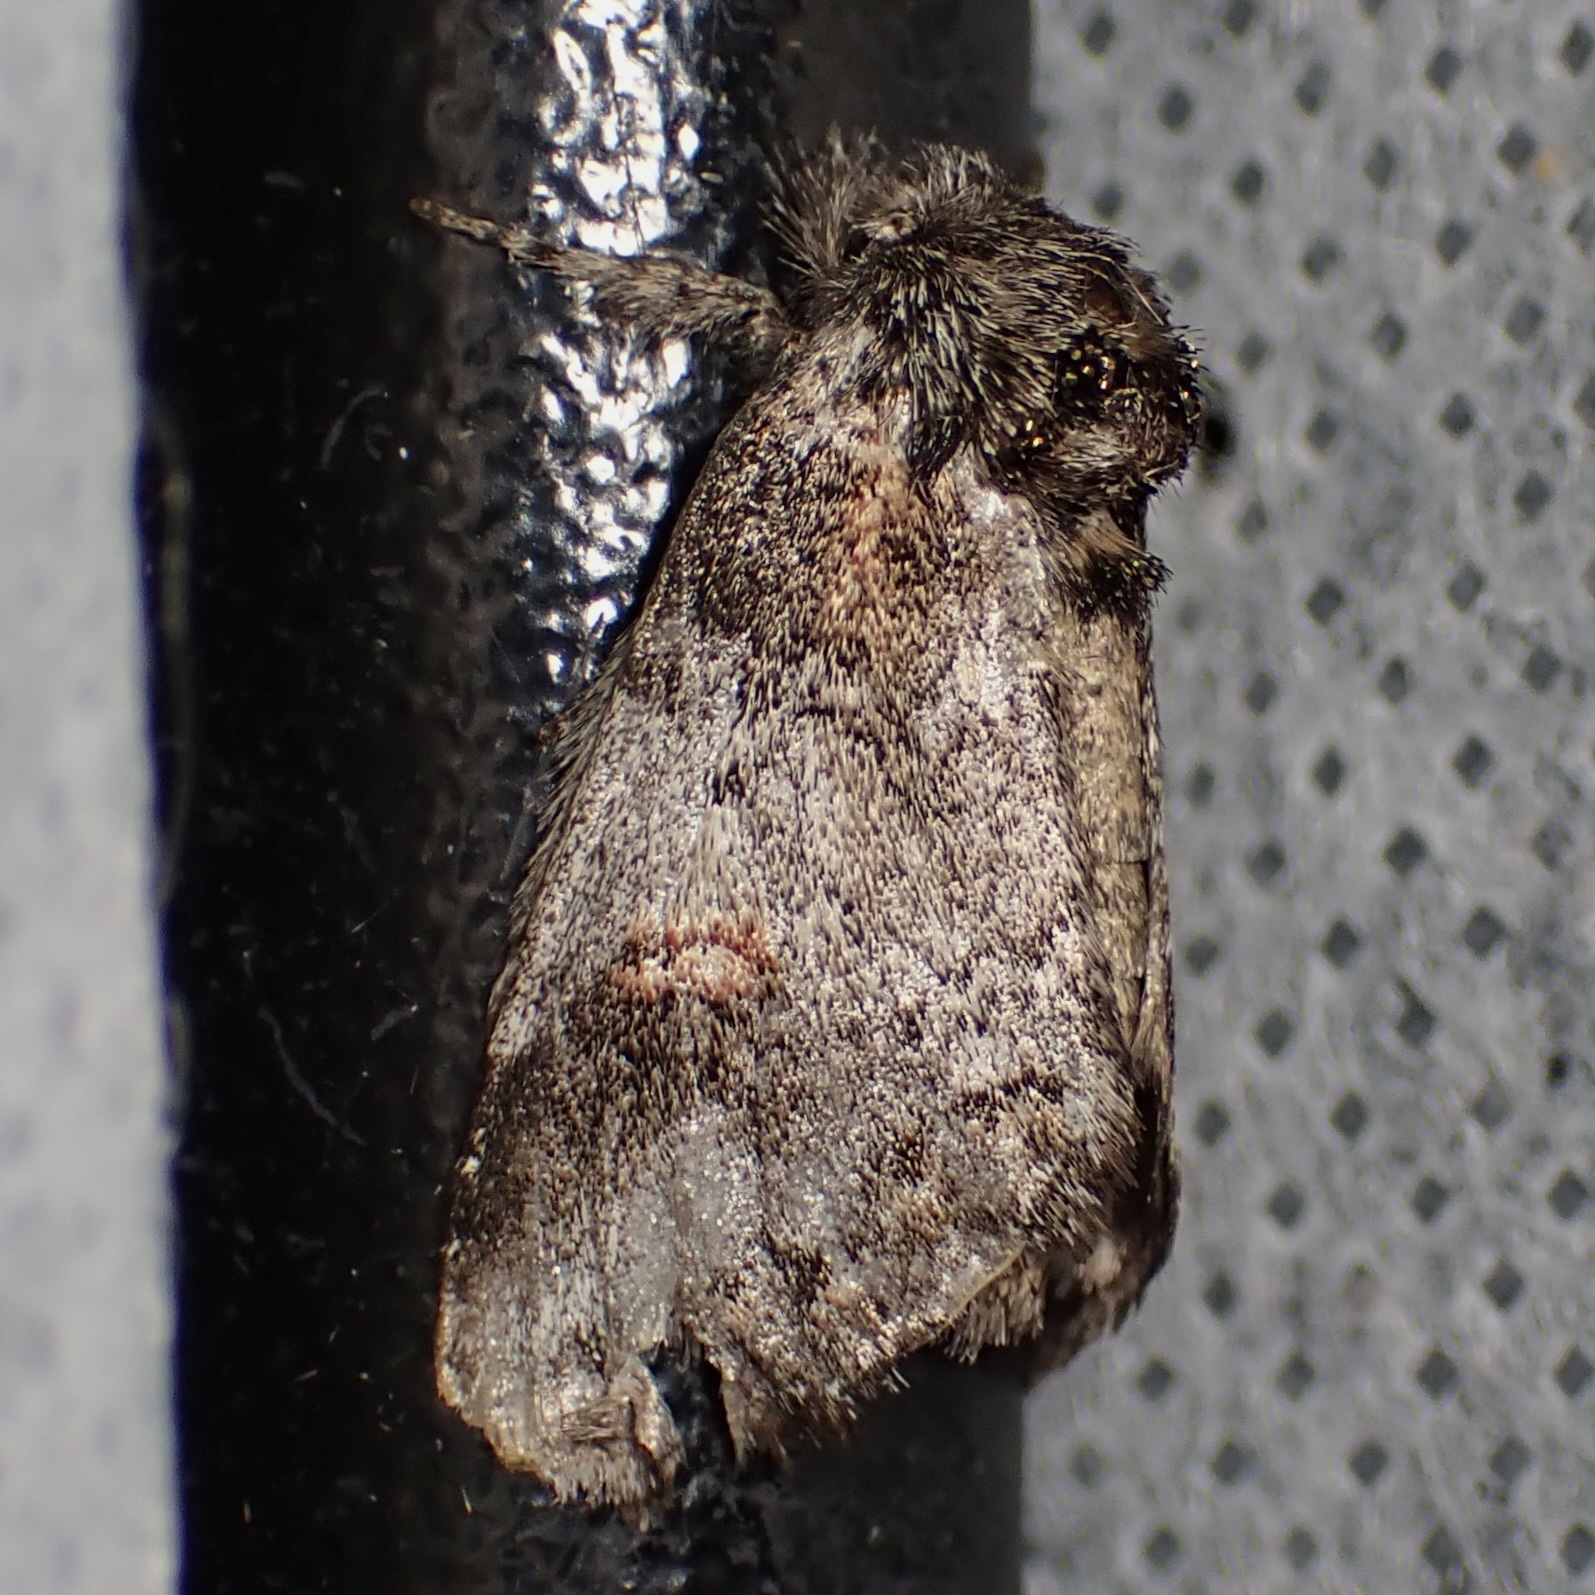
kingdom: Animalia
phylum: Arthropoda
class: Insecta
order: Lepidoptera
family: Notodontidae
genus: Kalkoma
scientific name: Kalkoma zapata
